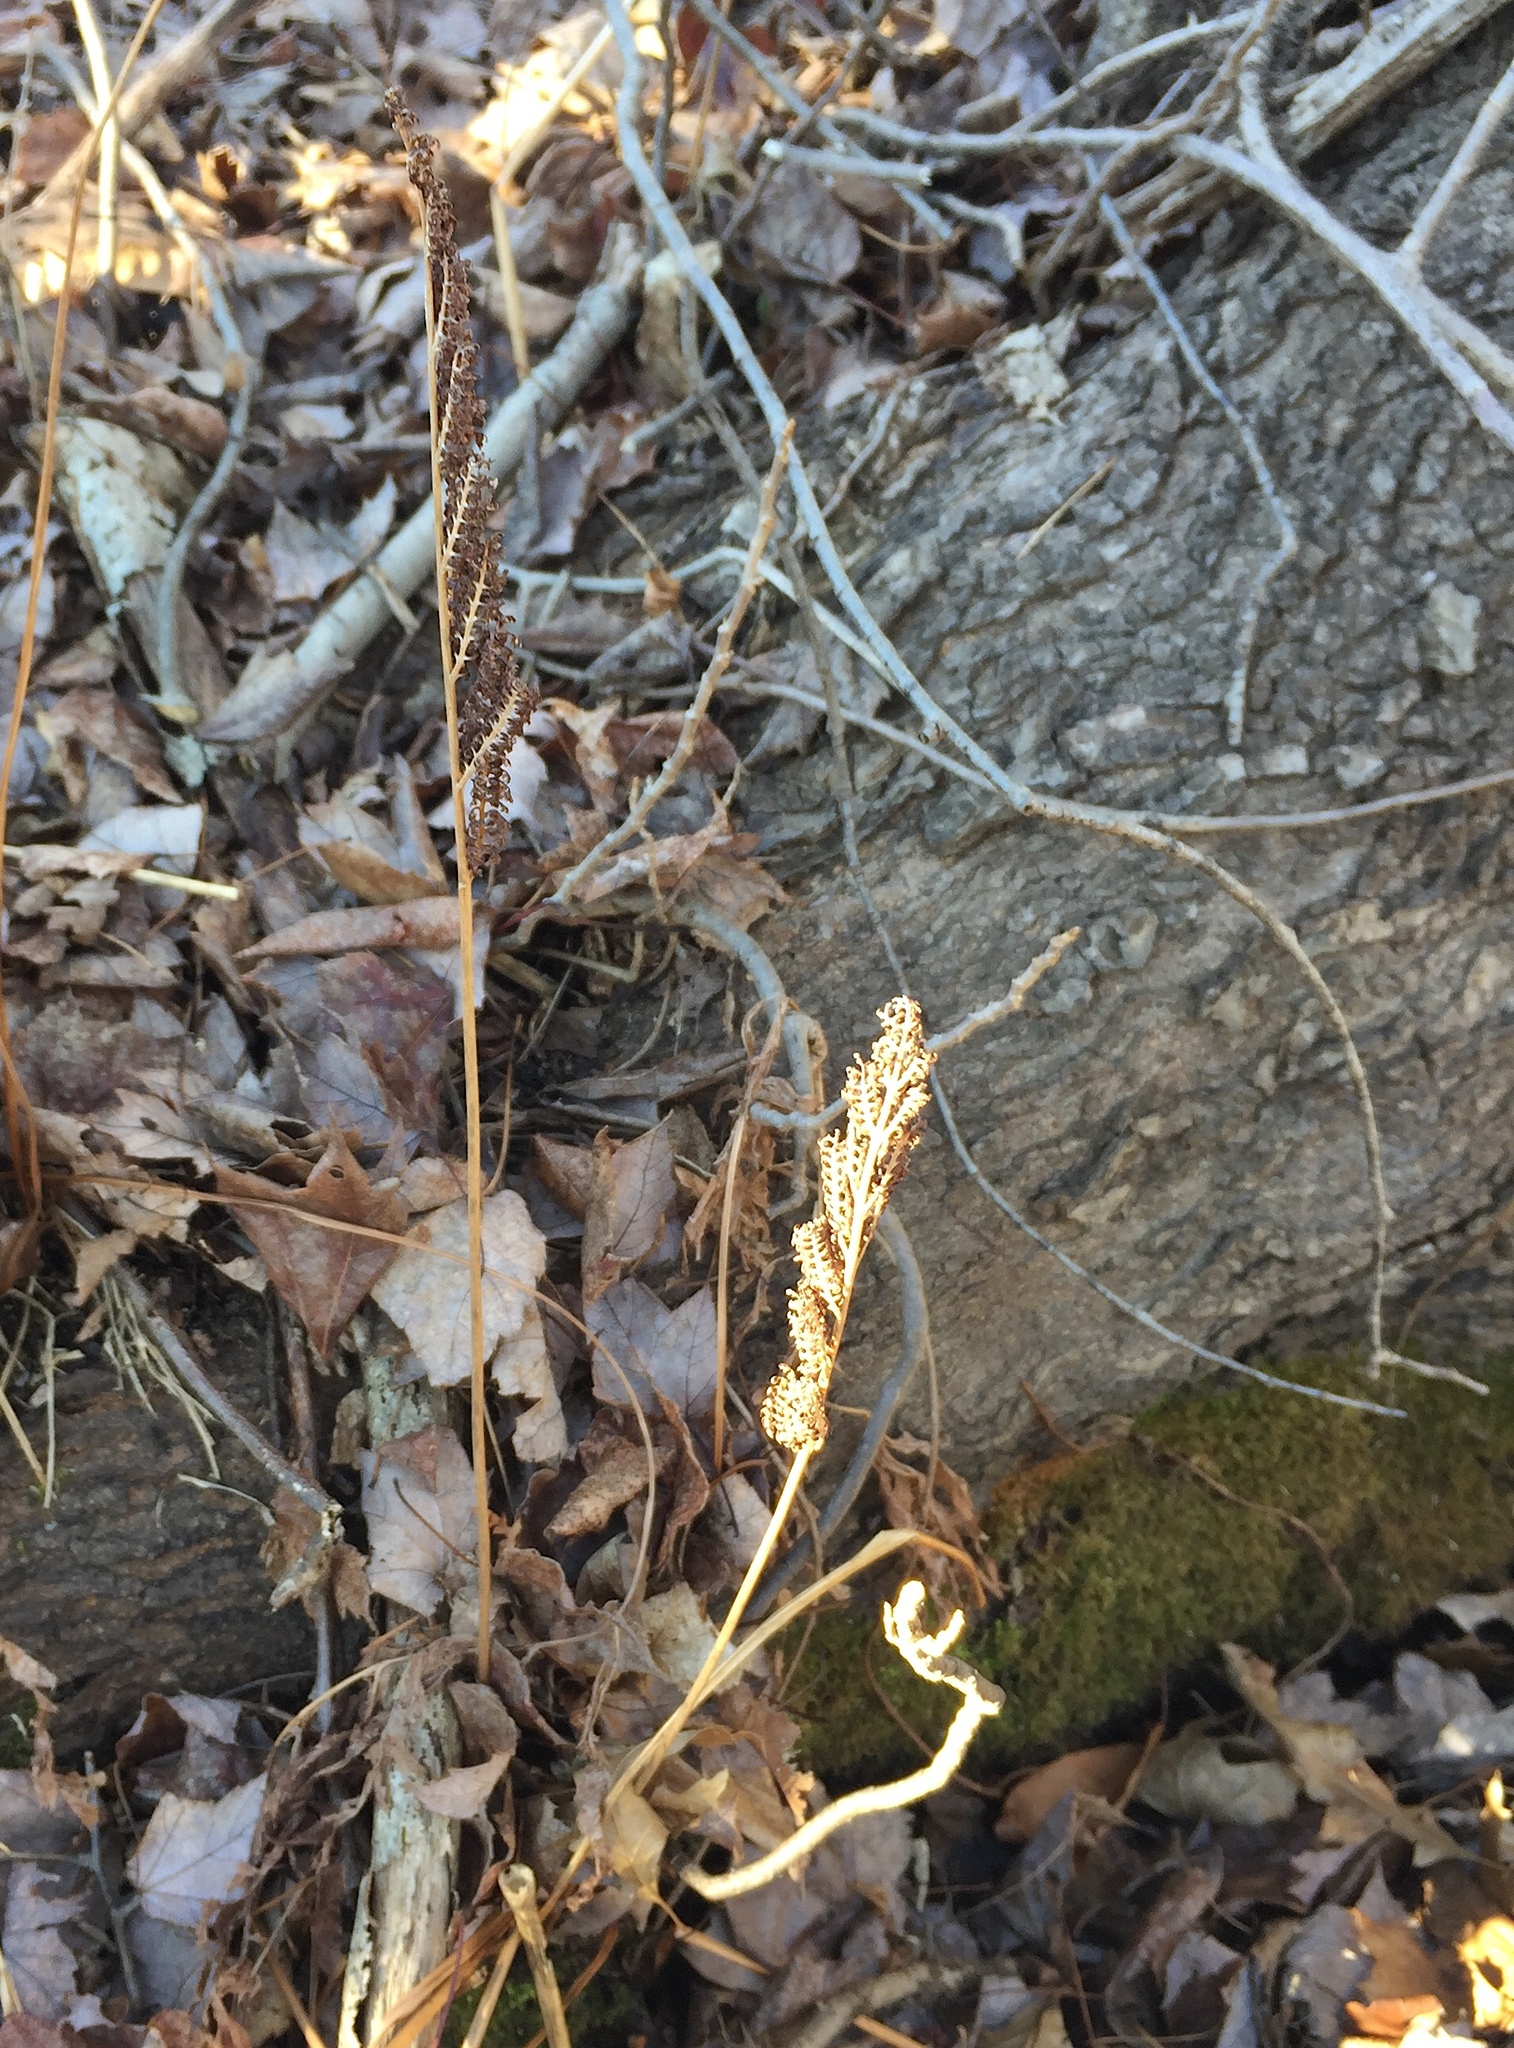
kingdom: Plantae
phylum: Tracheophyta
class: Polypodiopsida
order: Polypodiales
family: Onocleaceae
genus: Onoclea
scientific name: Onoclea sensibilis
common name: Sensitive fern
